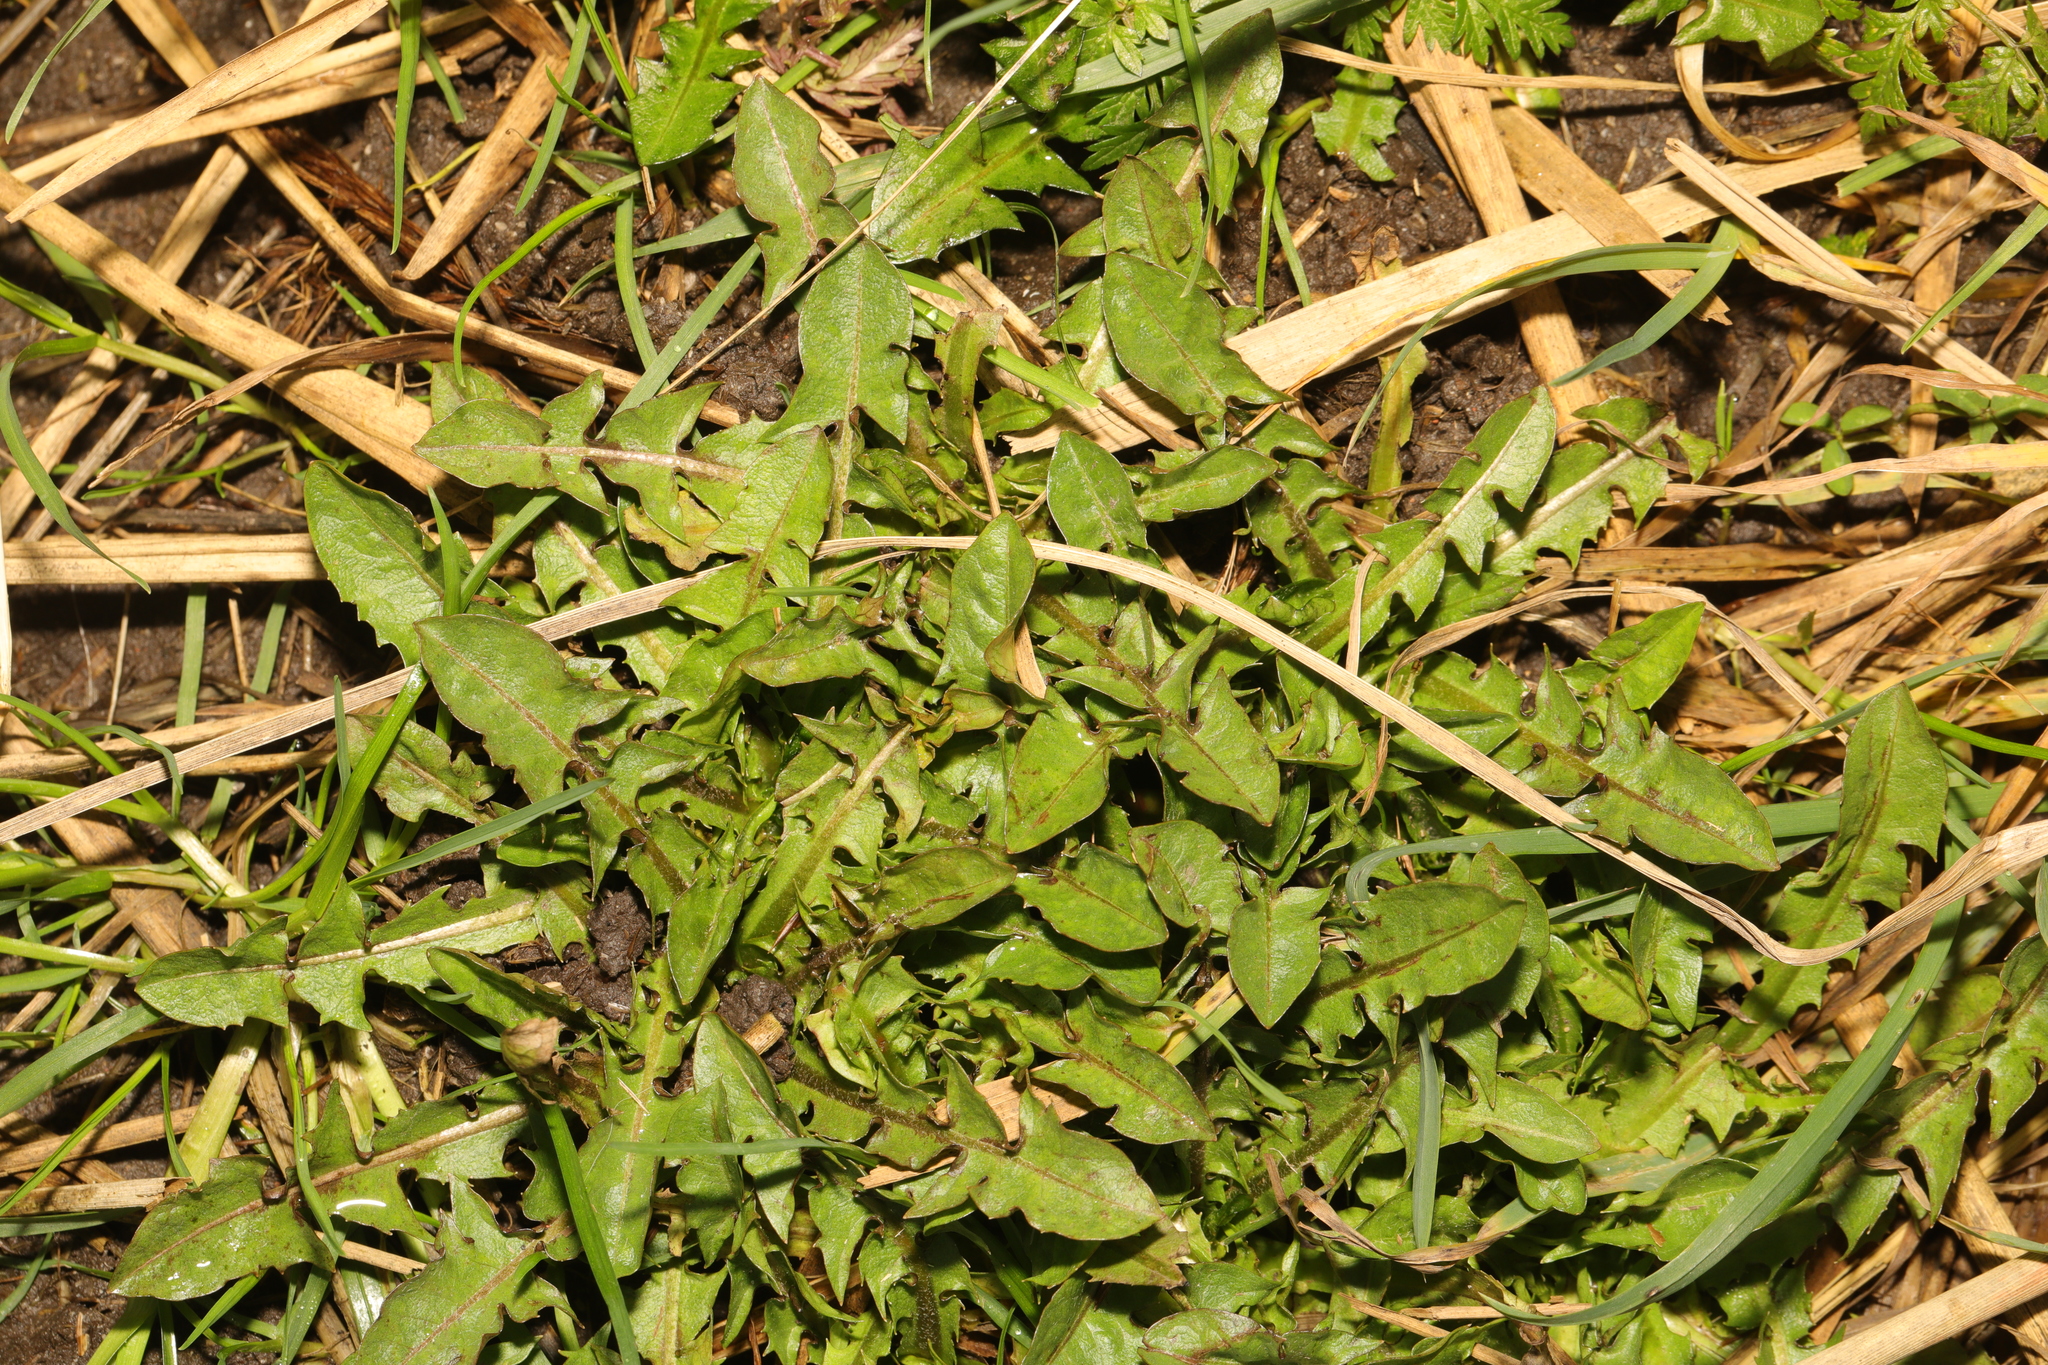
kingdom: Plantae
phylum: Tracheophyta
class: Magnoliopsida
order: Asterales
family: Asteraceae
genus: Taraxacum
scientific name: Taraxacum
